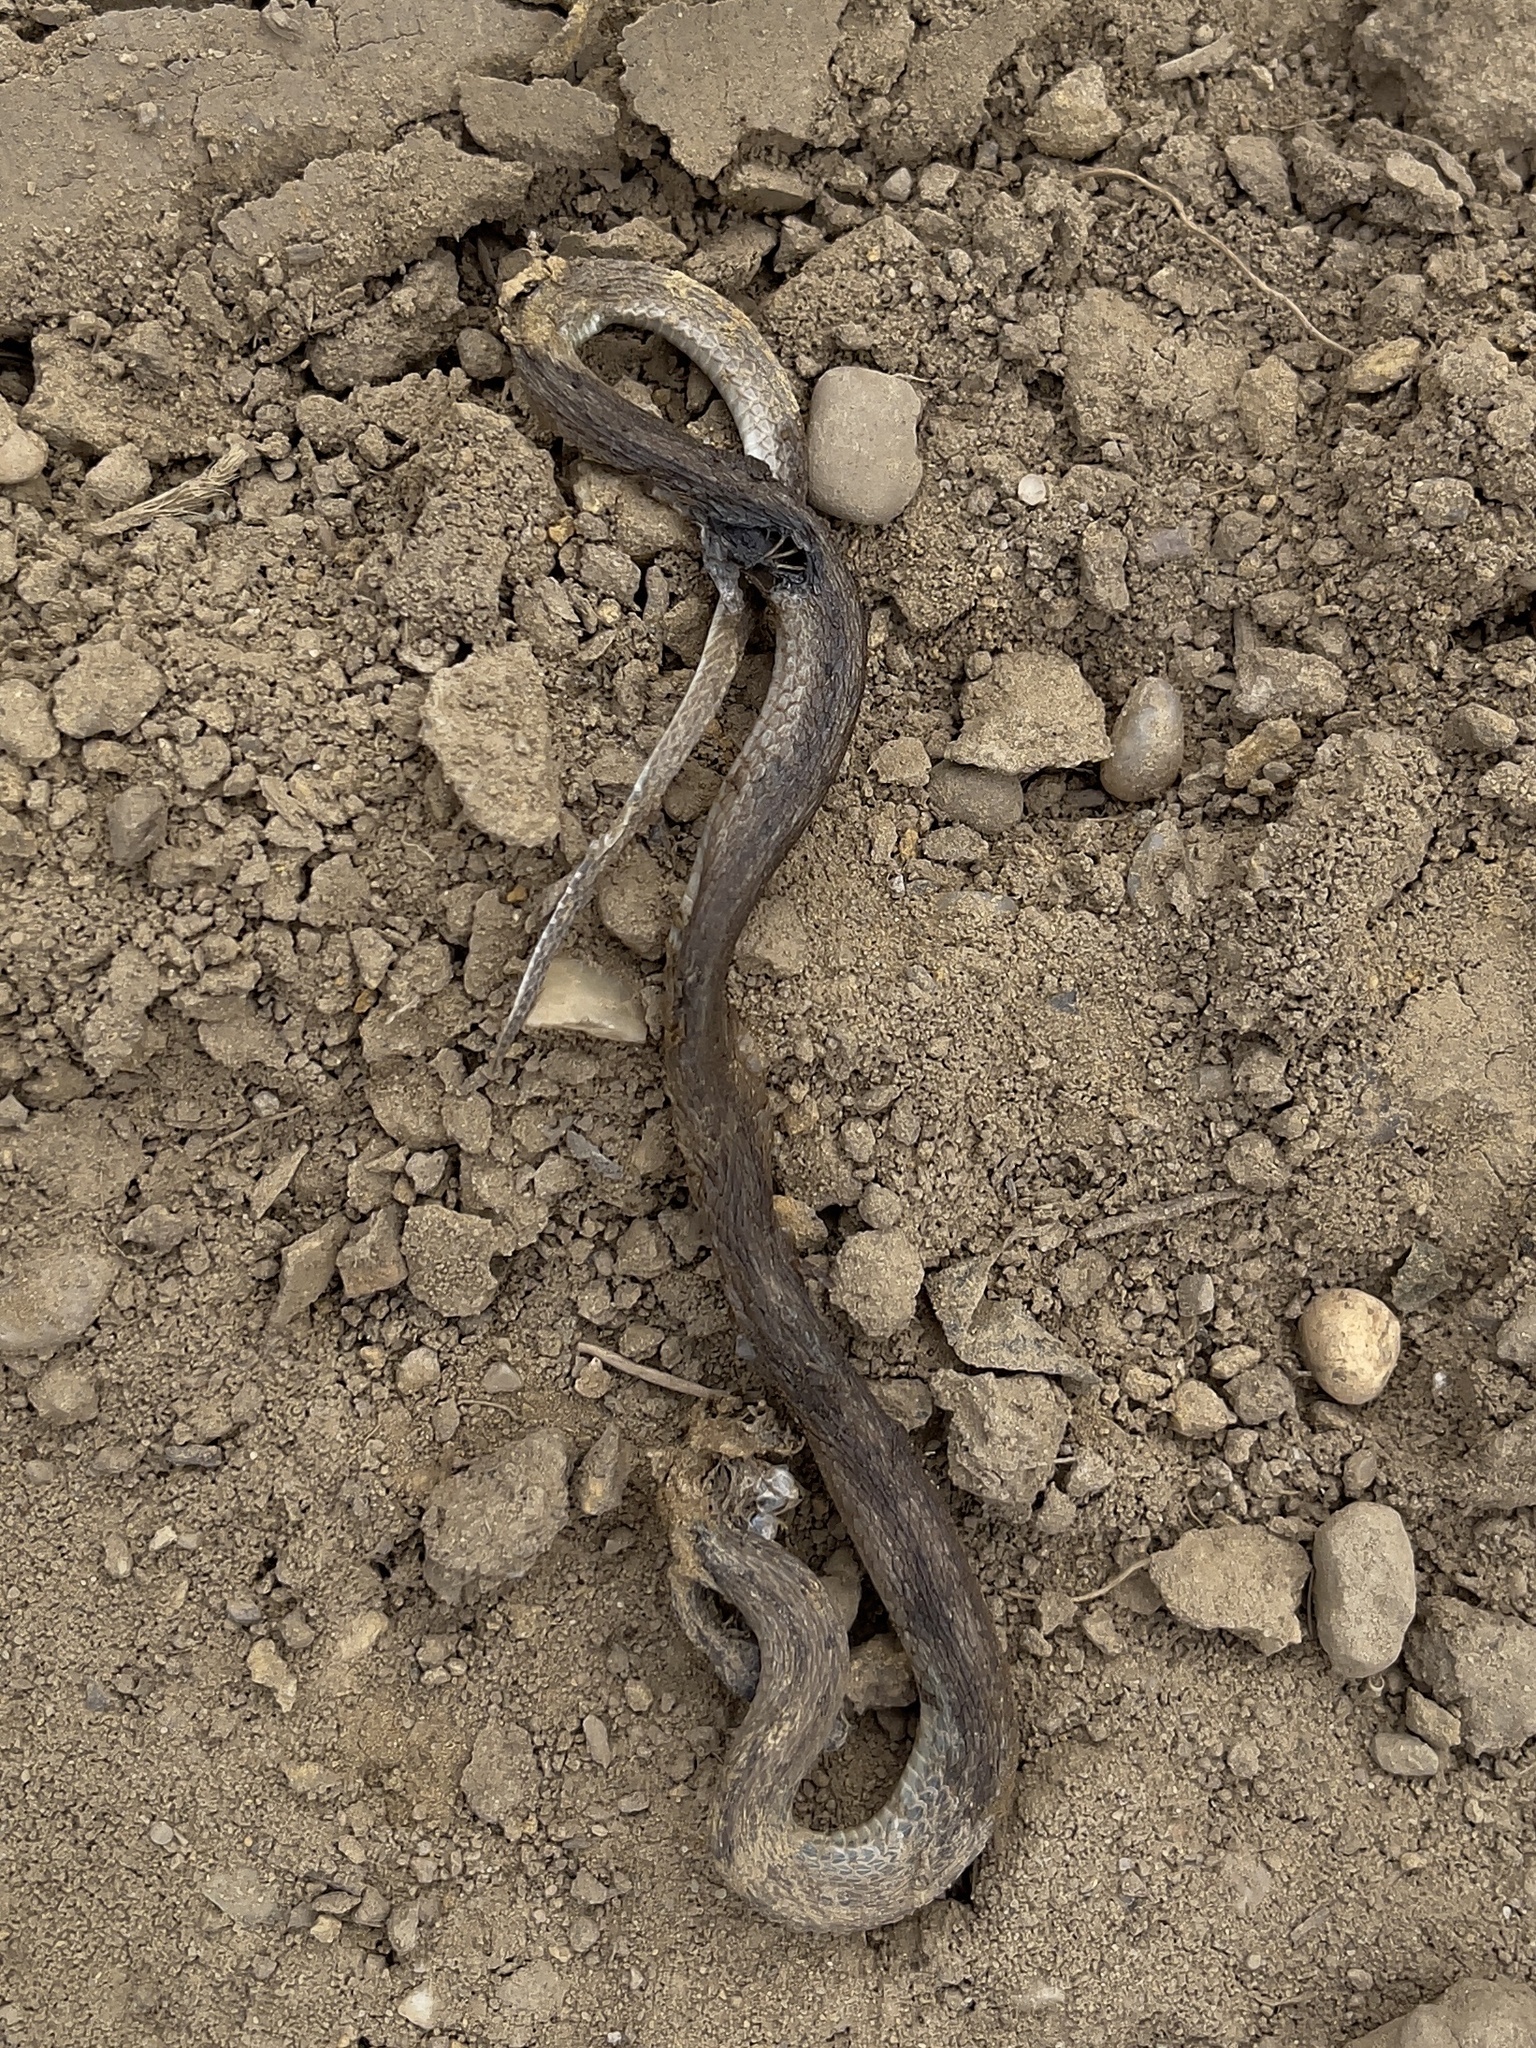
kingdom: Animalia
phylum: Chordata
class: Squamata
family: Colubridae
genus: Storeria
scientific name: Storeria dekayi
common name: (dekay’s) brown snake
